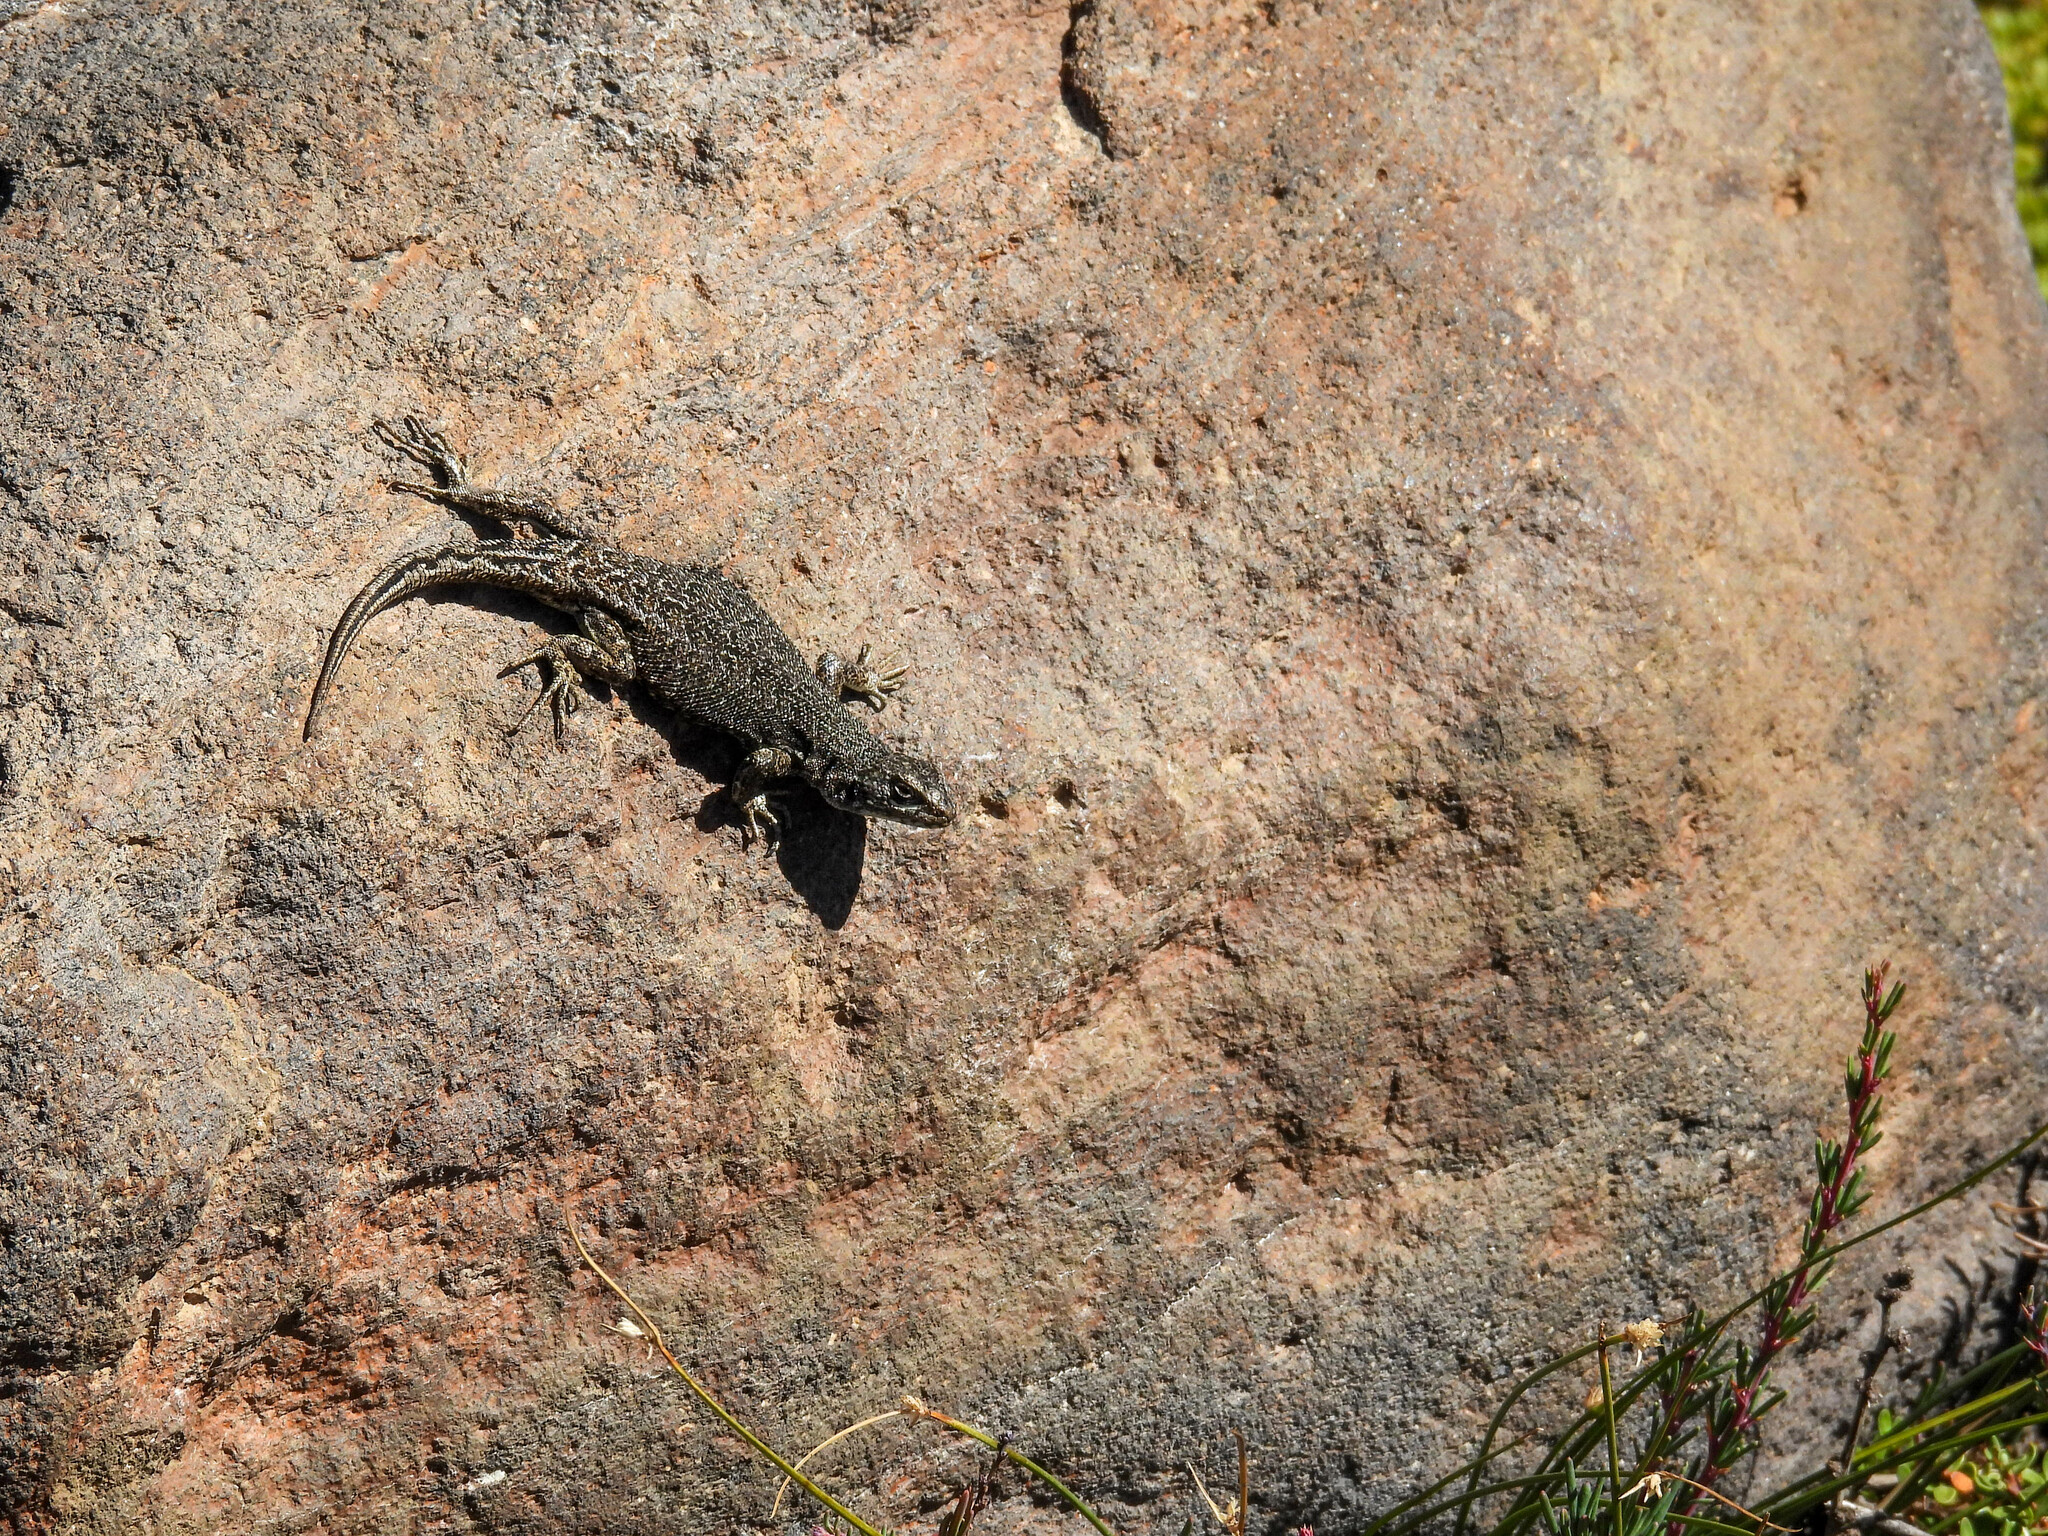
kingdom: Animalia
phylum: Chordata
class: Squamata
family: Liolaemidae
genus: Liolaemus
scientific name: Liolaemus neuquensis
